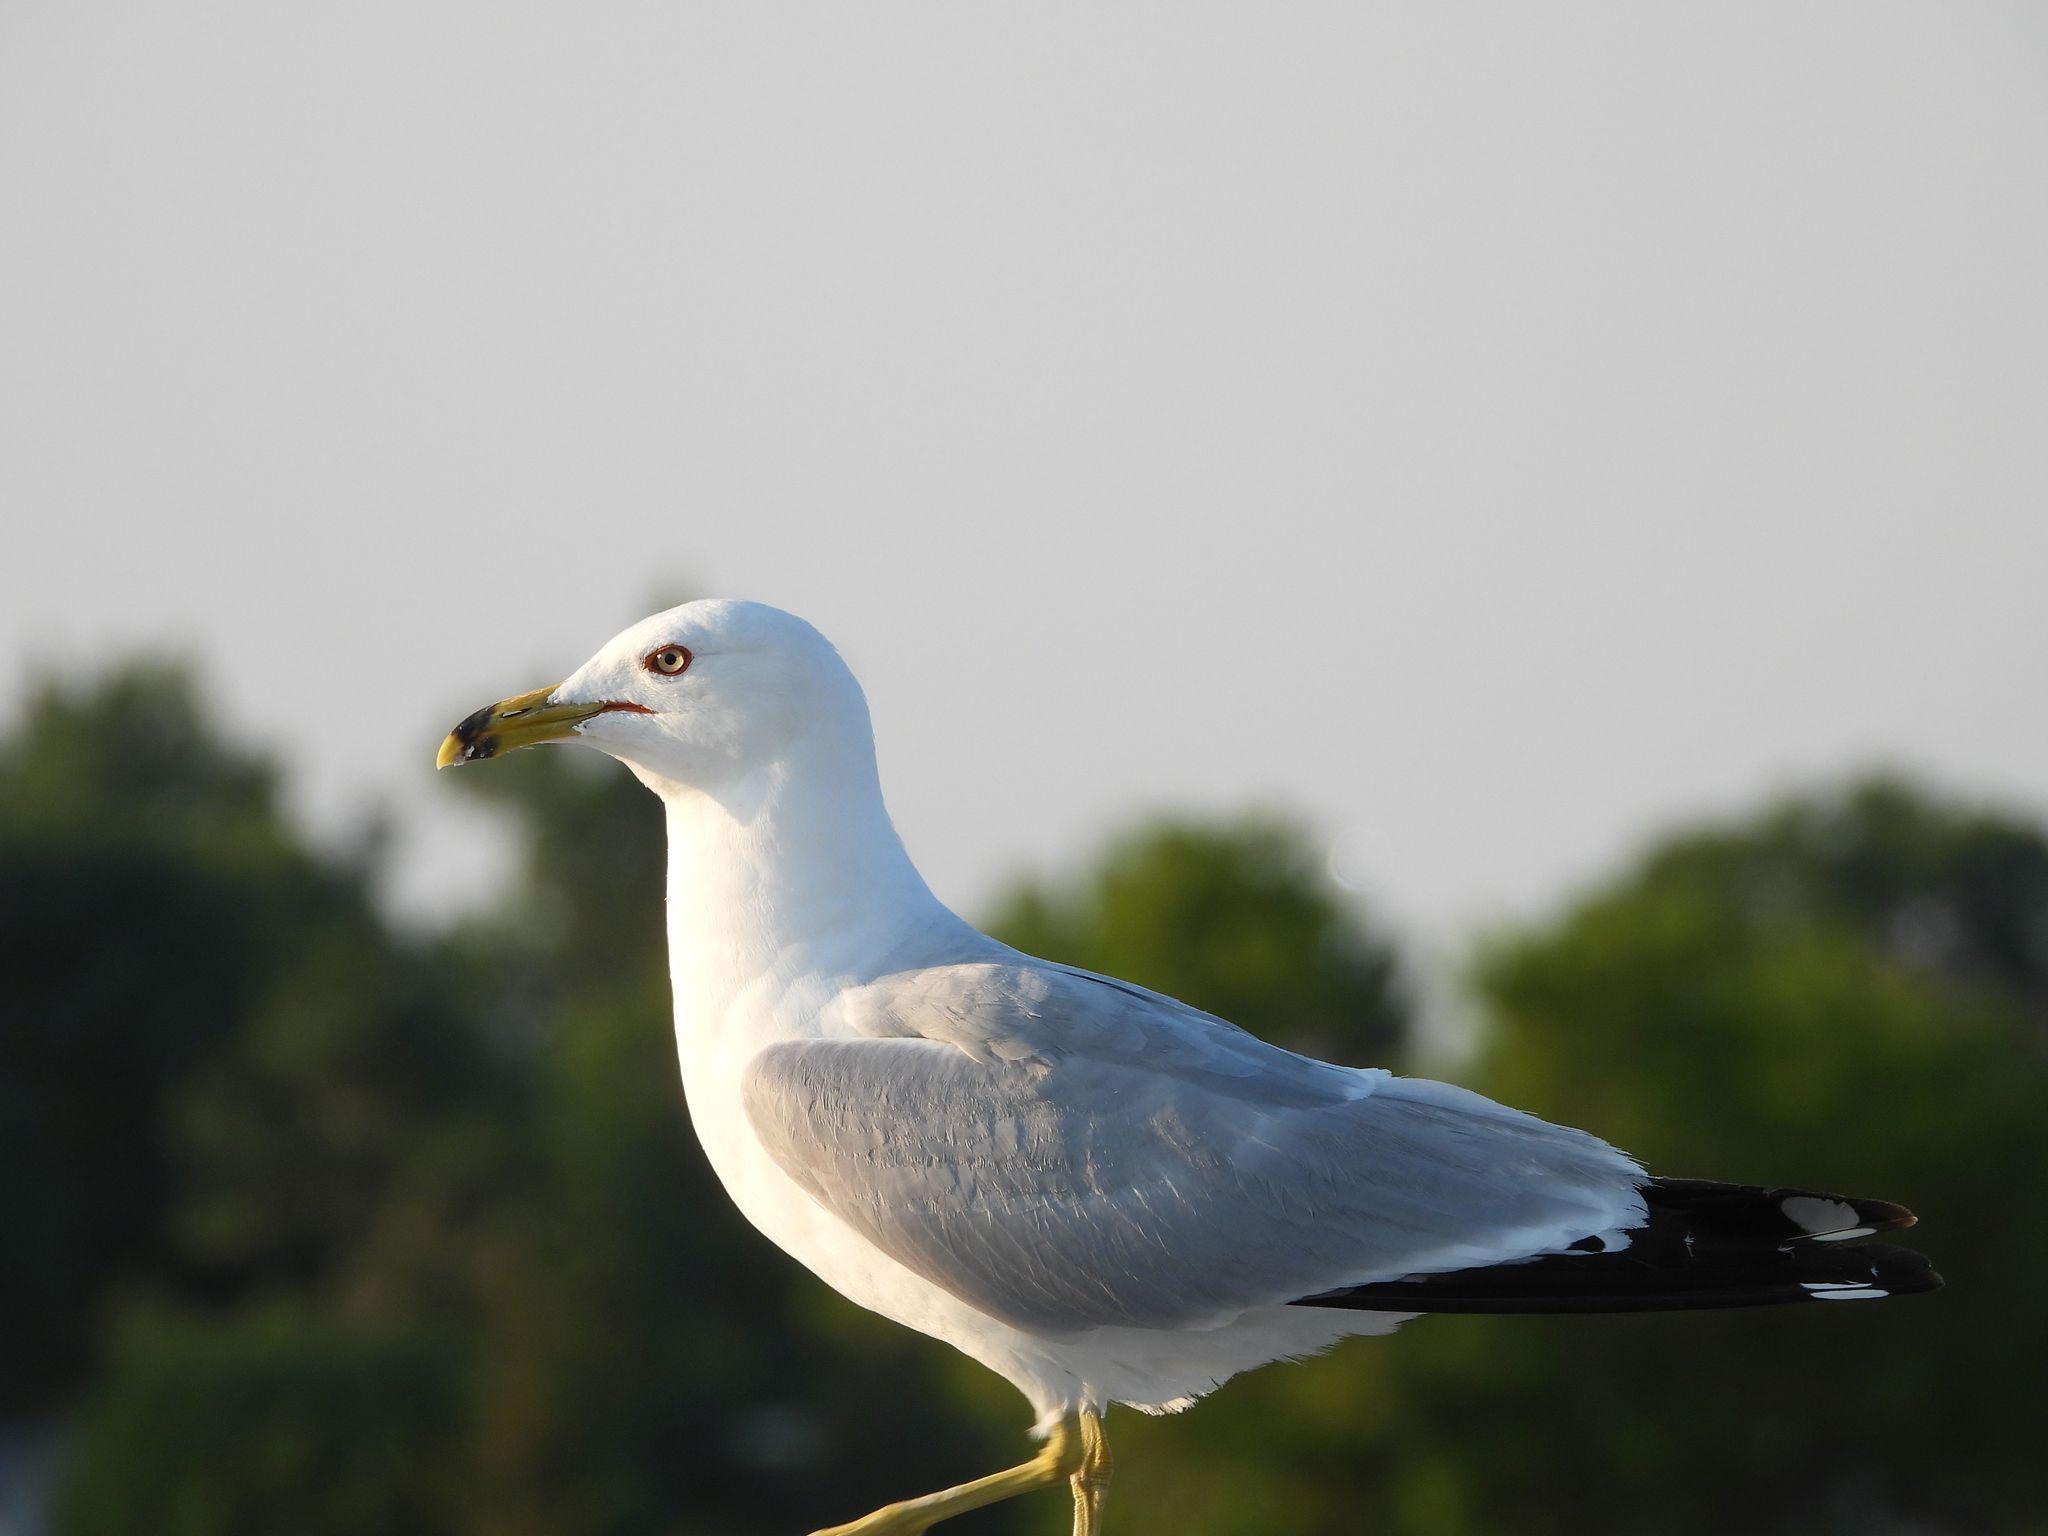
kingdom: Animalia
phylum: Chordata
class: Aves
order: Charadriiformes
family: Laridae
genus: Larus
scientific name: Larus delawarensis
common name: Ring-billed gull
